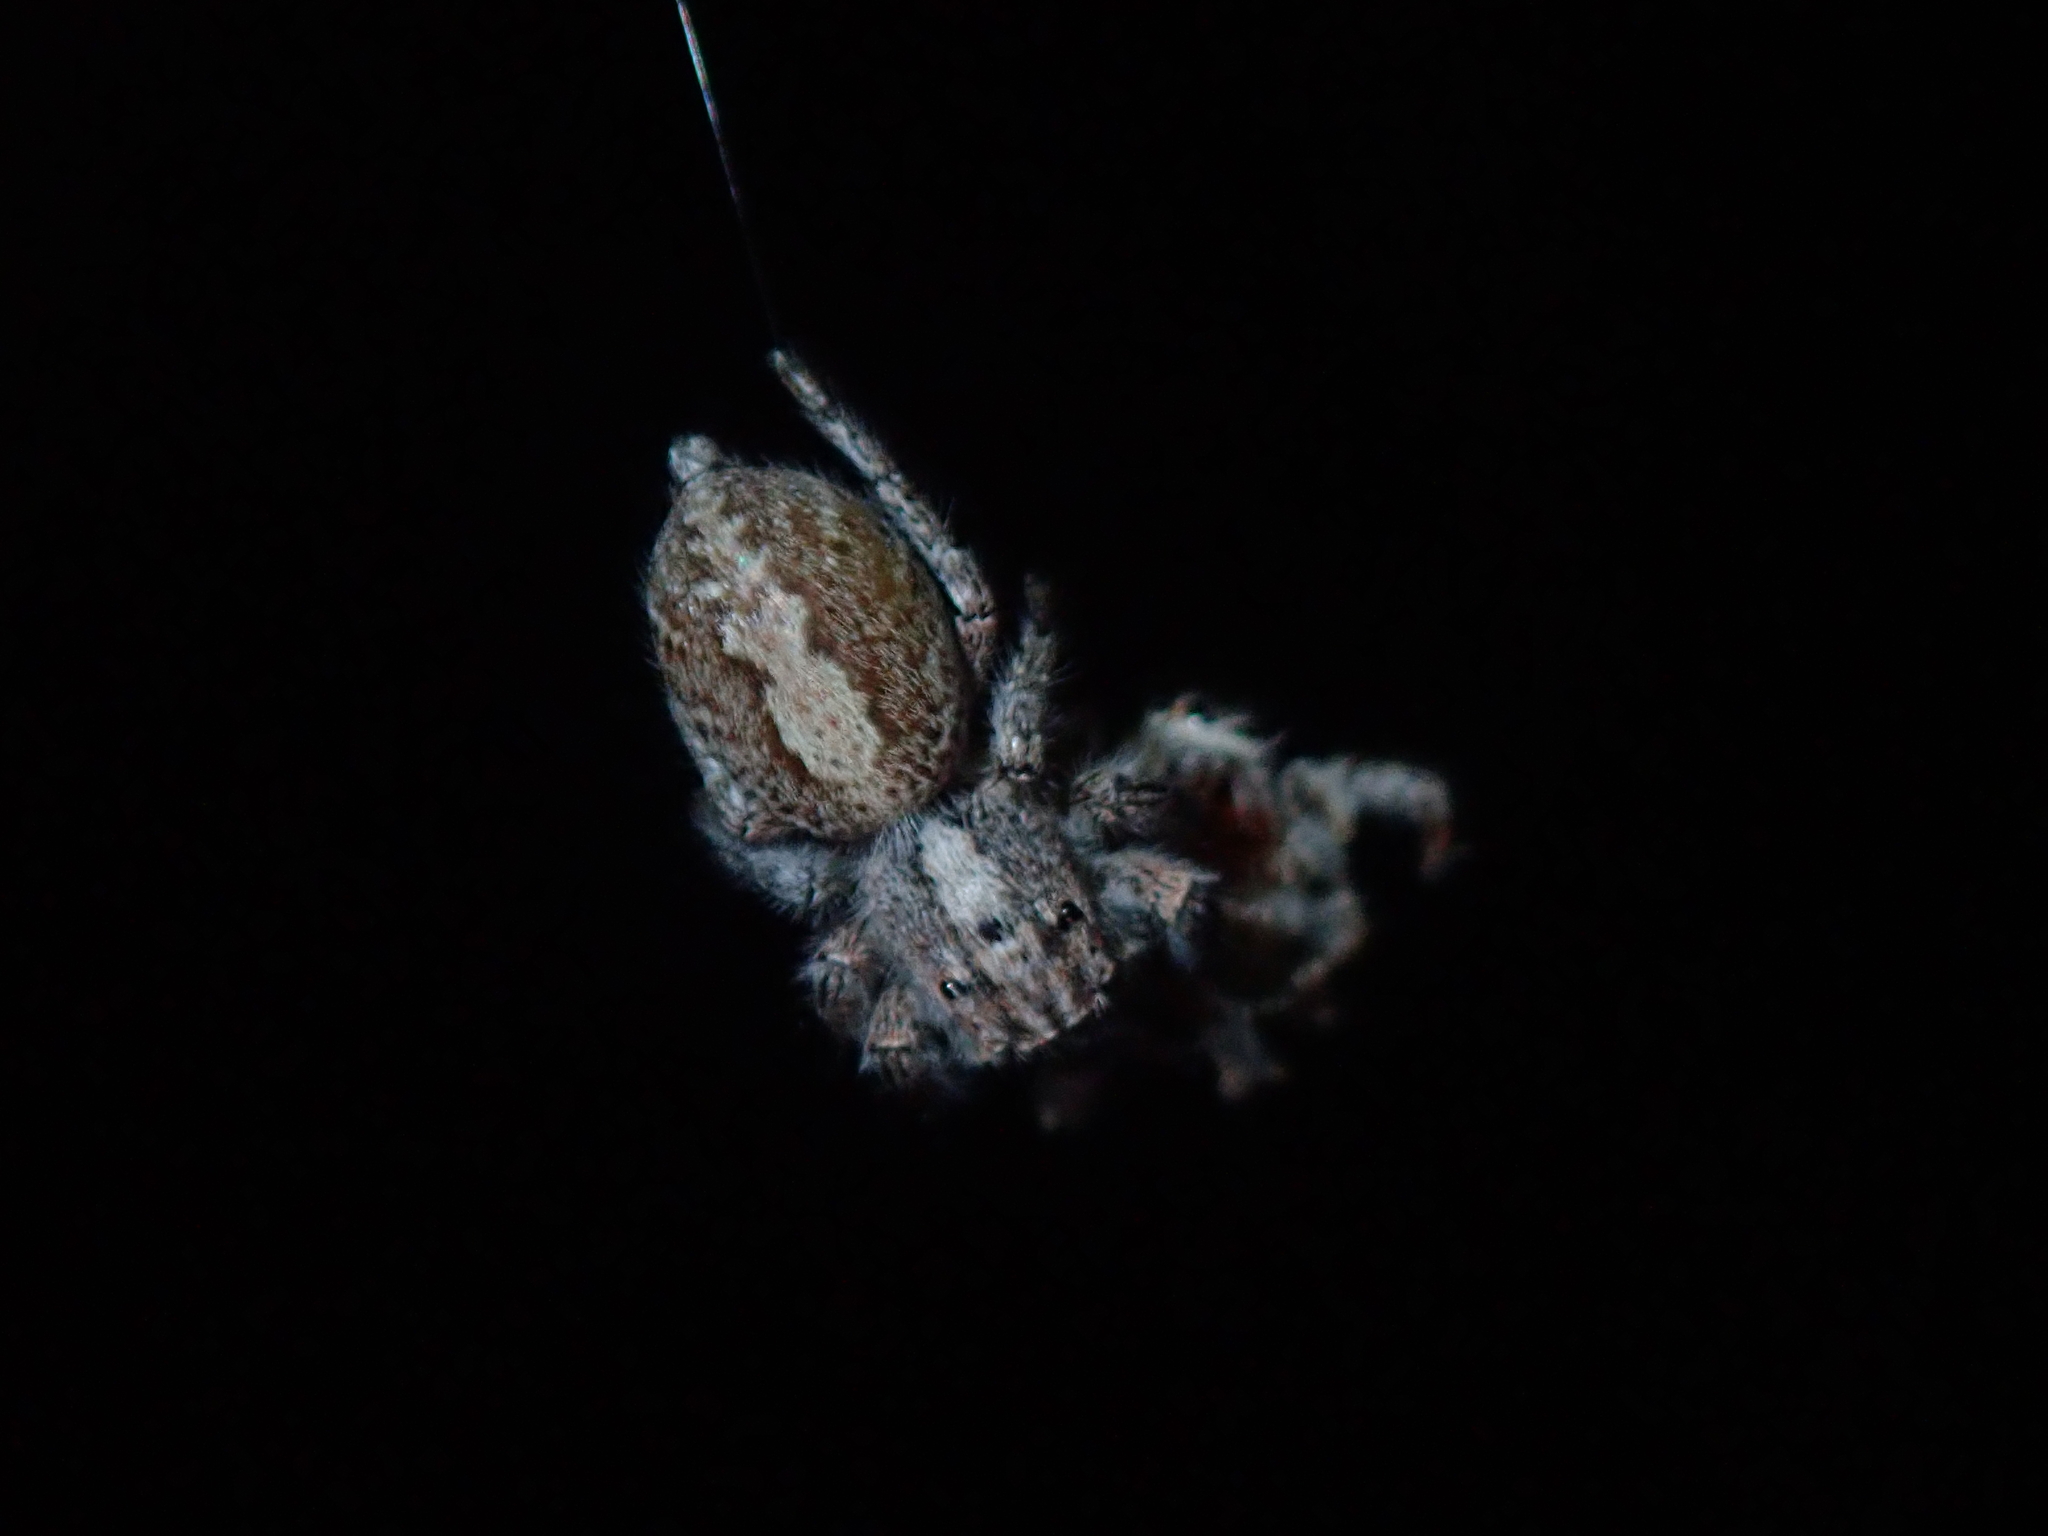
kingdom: Animalia
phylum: Arthropoda
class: Arachnida
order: Araneae
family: Salticidae
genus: Megafreya
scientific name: Megafreya sutrix
